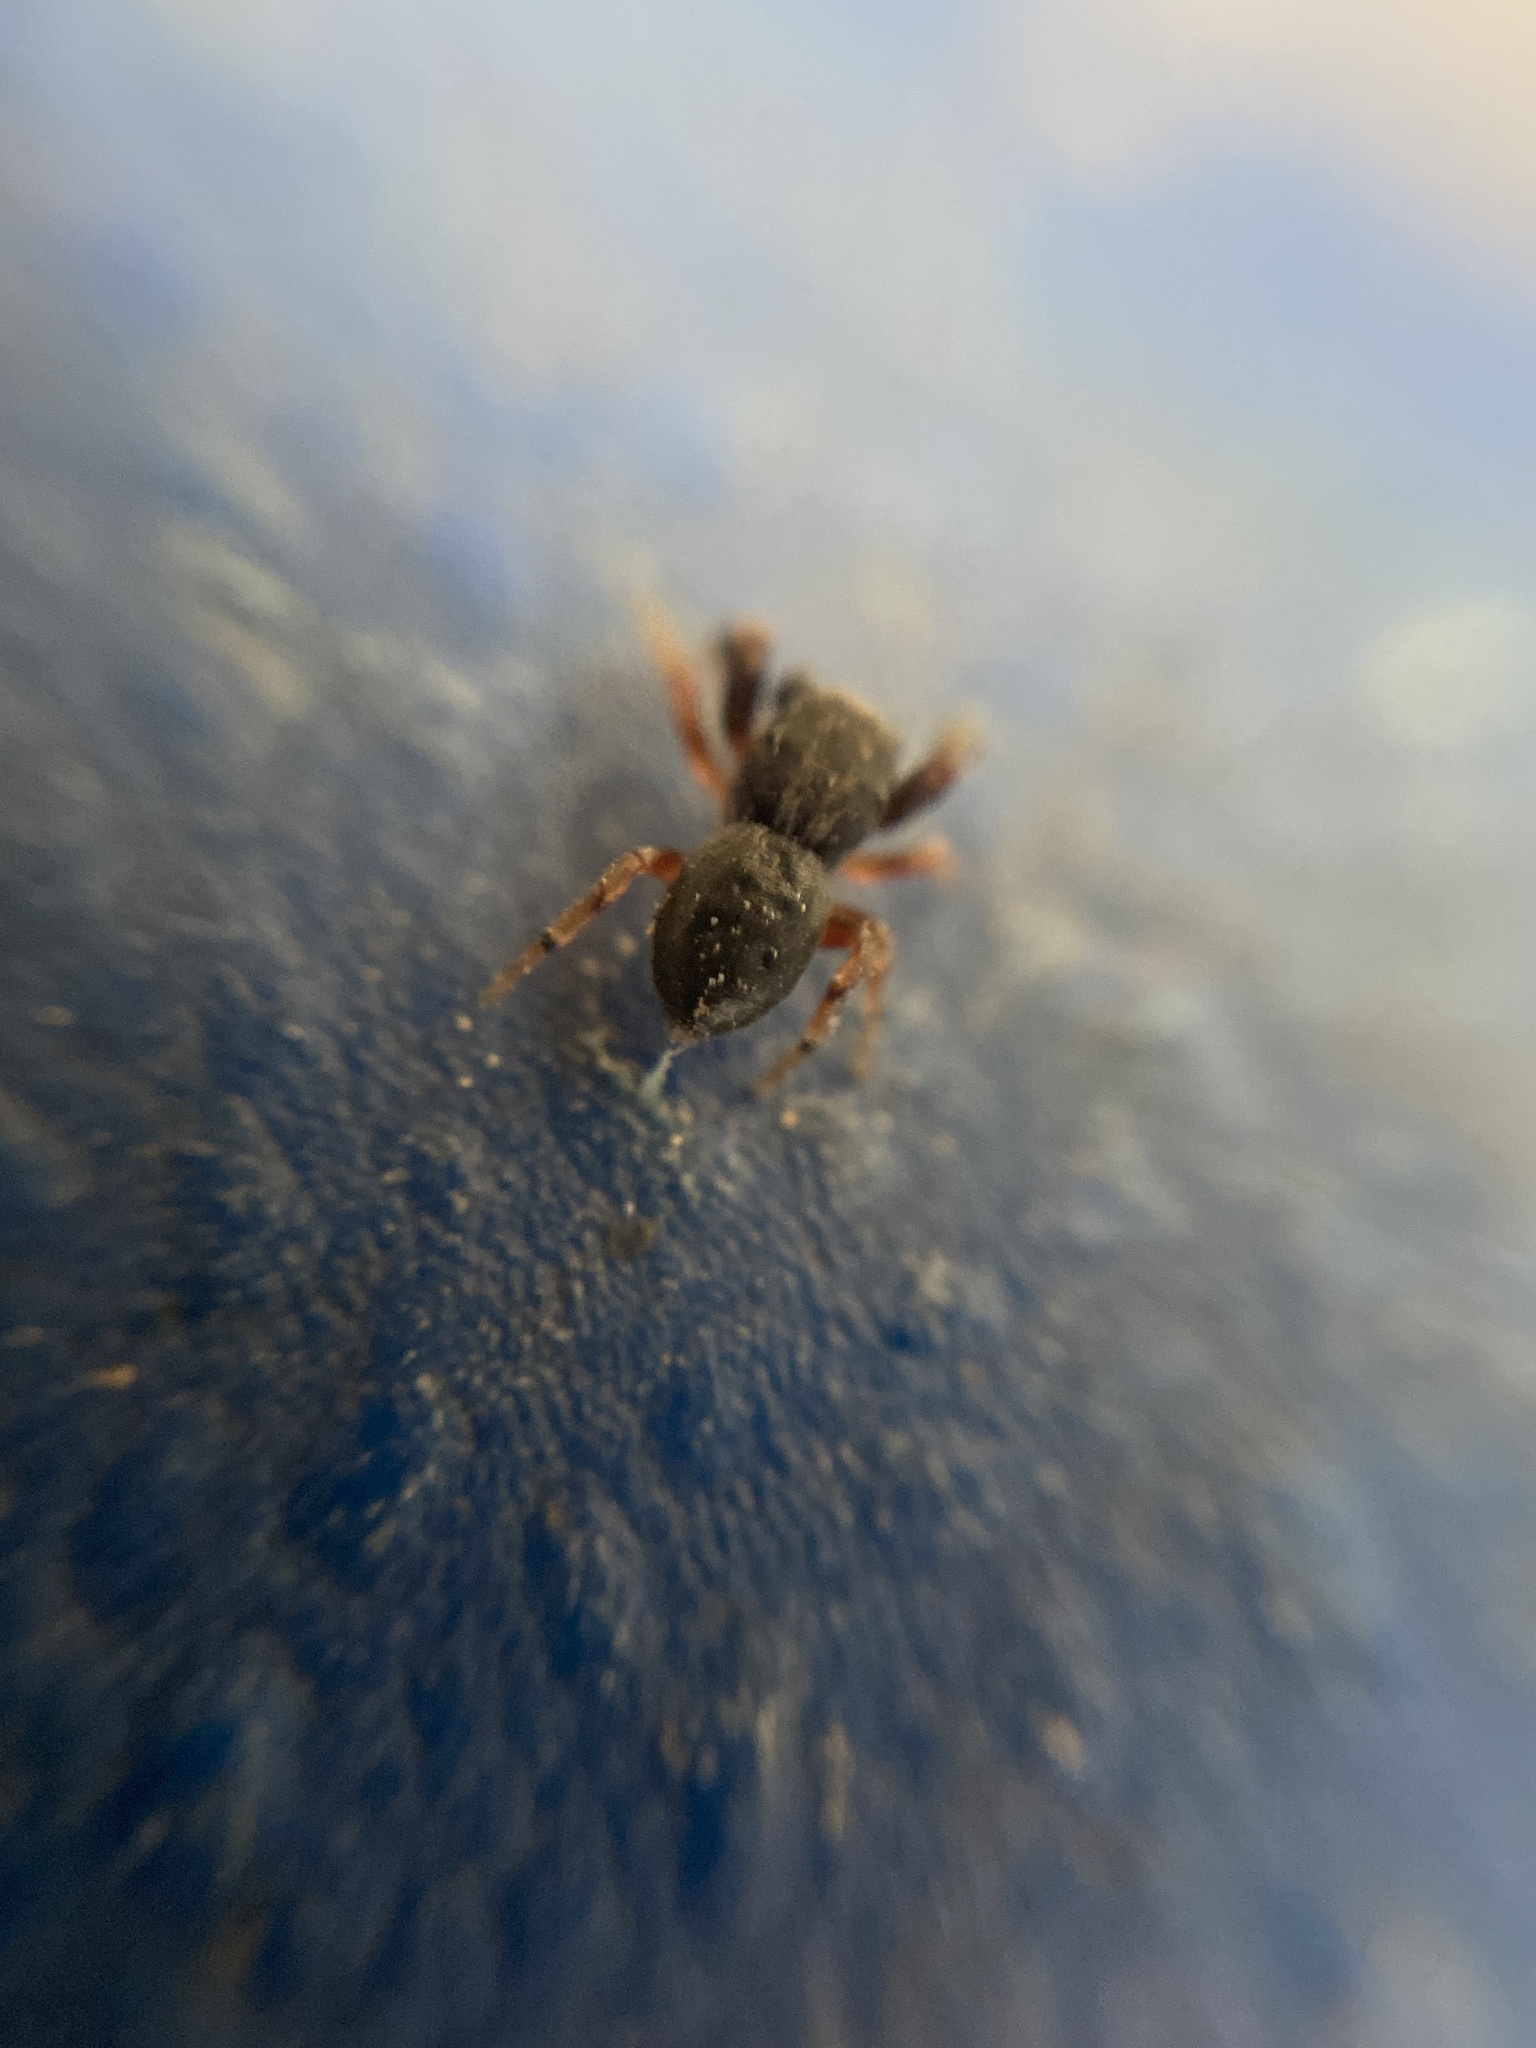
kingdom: Animalia
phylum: Arthropoda
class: Arachnida
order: Araneae
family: Salticidae
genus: Ballus
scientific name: Ballus chalybeius
